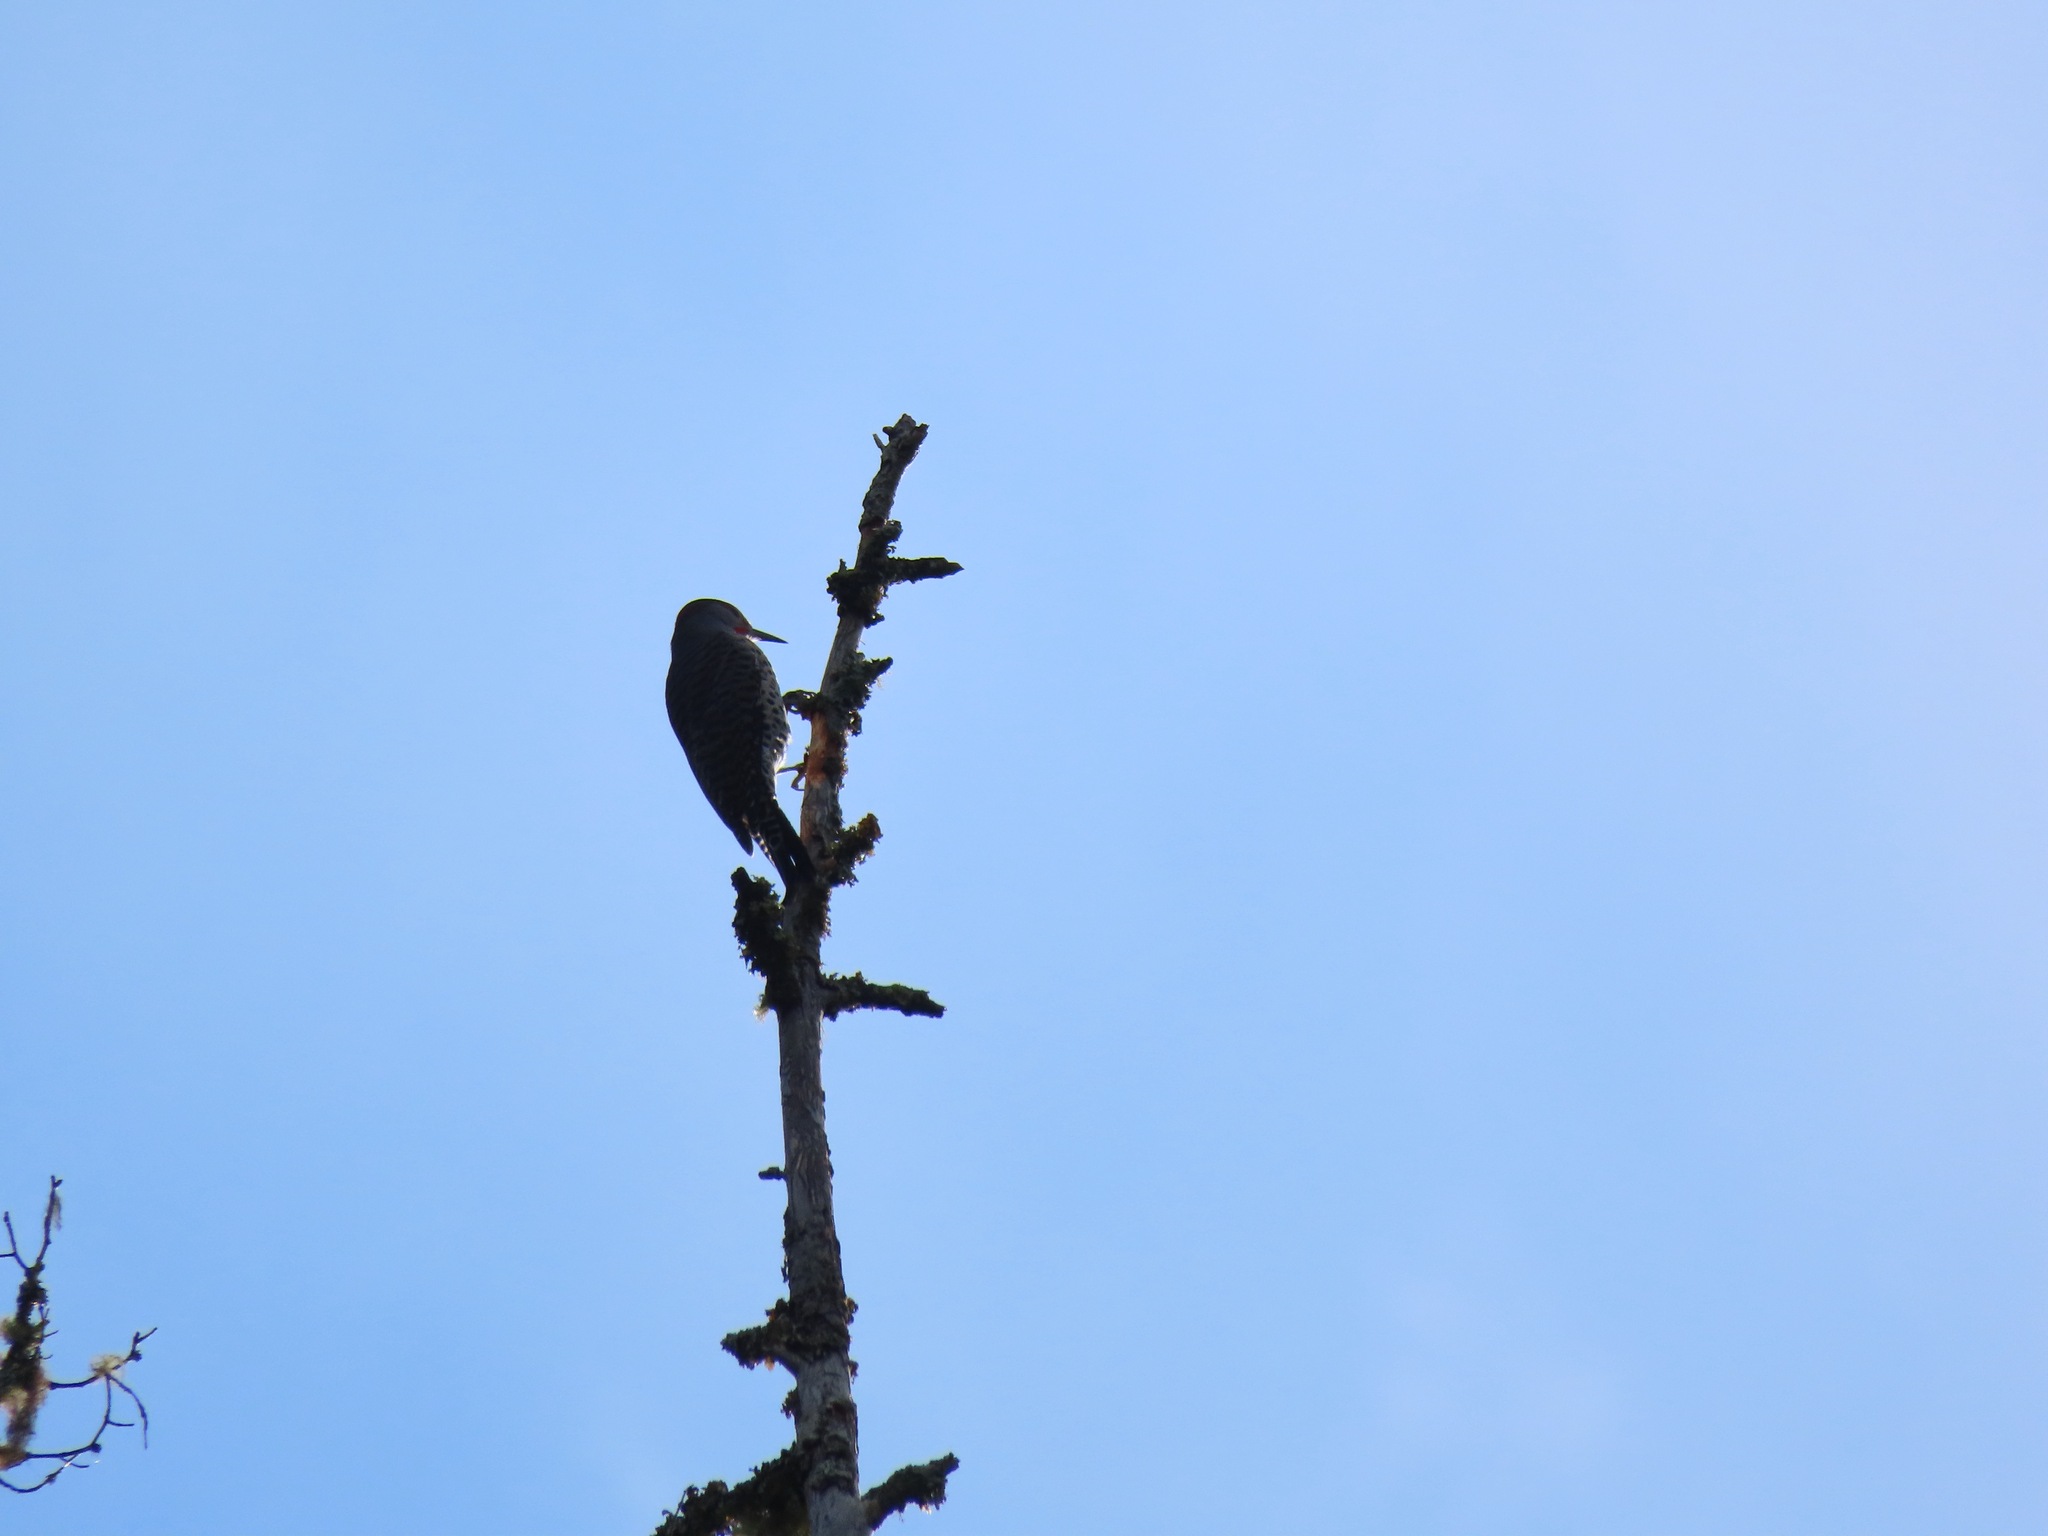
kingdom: Animalia
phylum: Chordata
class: Aves
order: Piciformes
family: Picidae
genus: Colaptes
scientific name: Colaptes auratus
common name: Northern flicker
